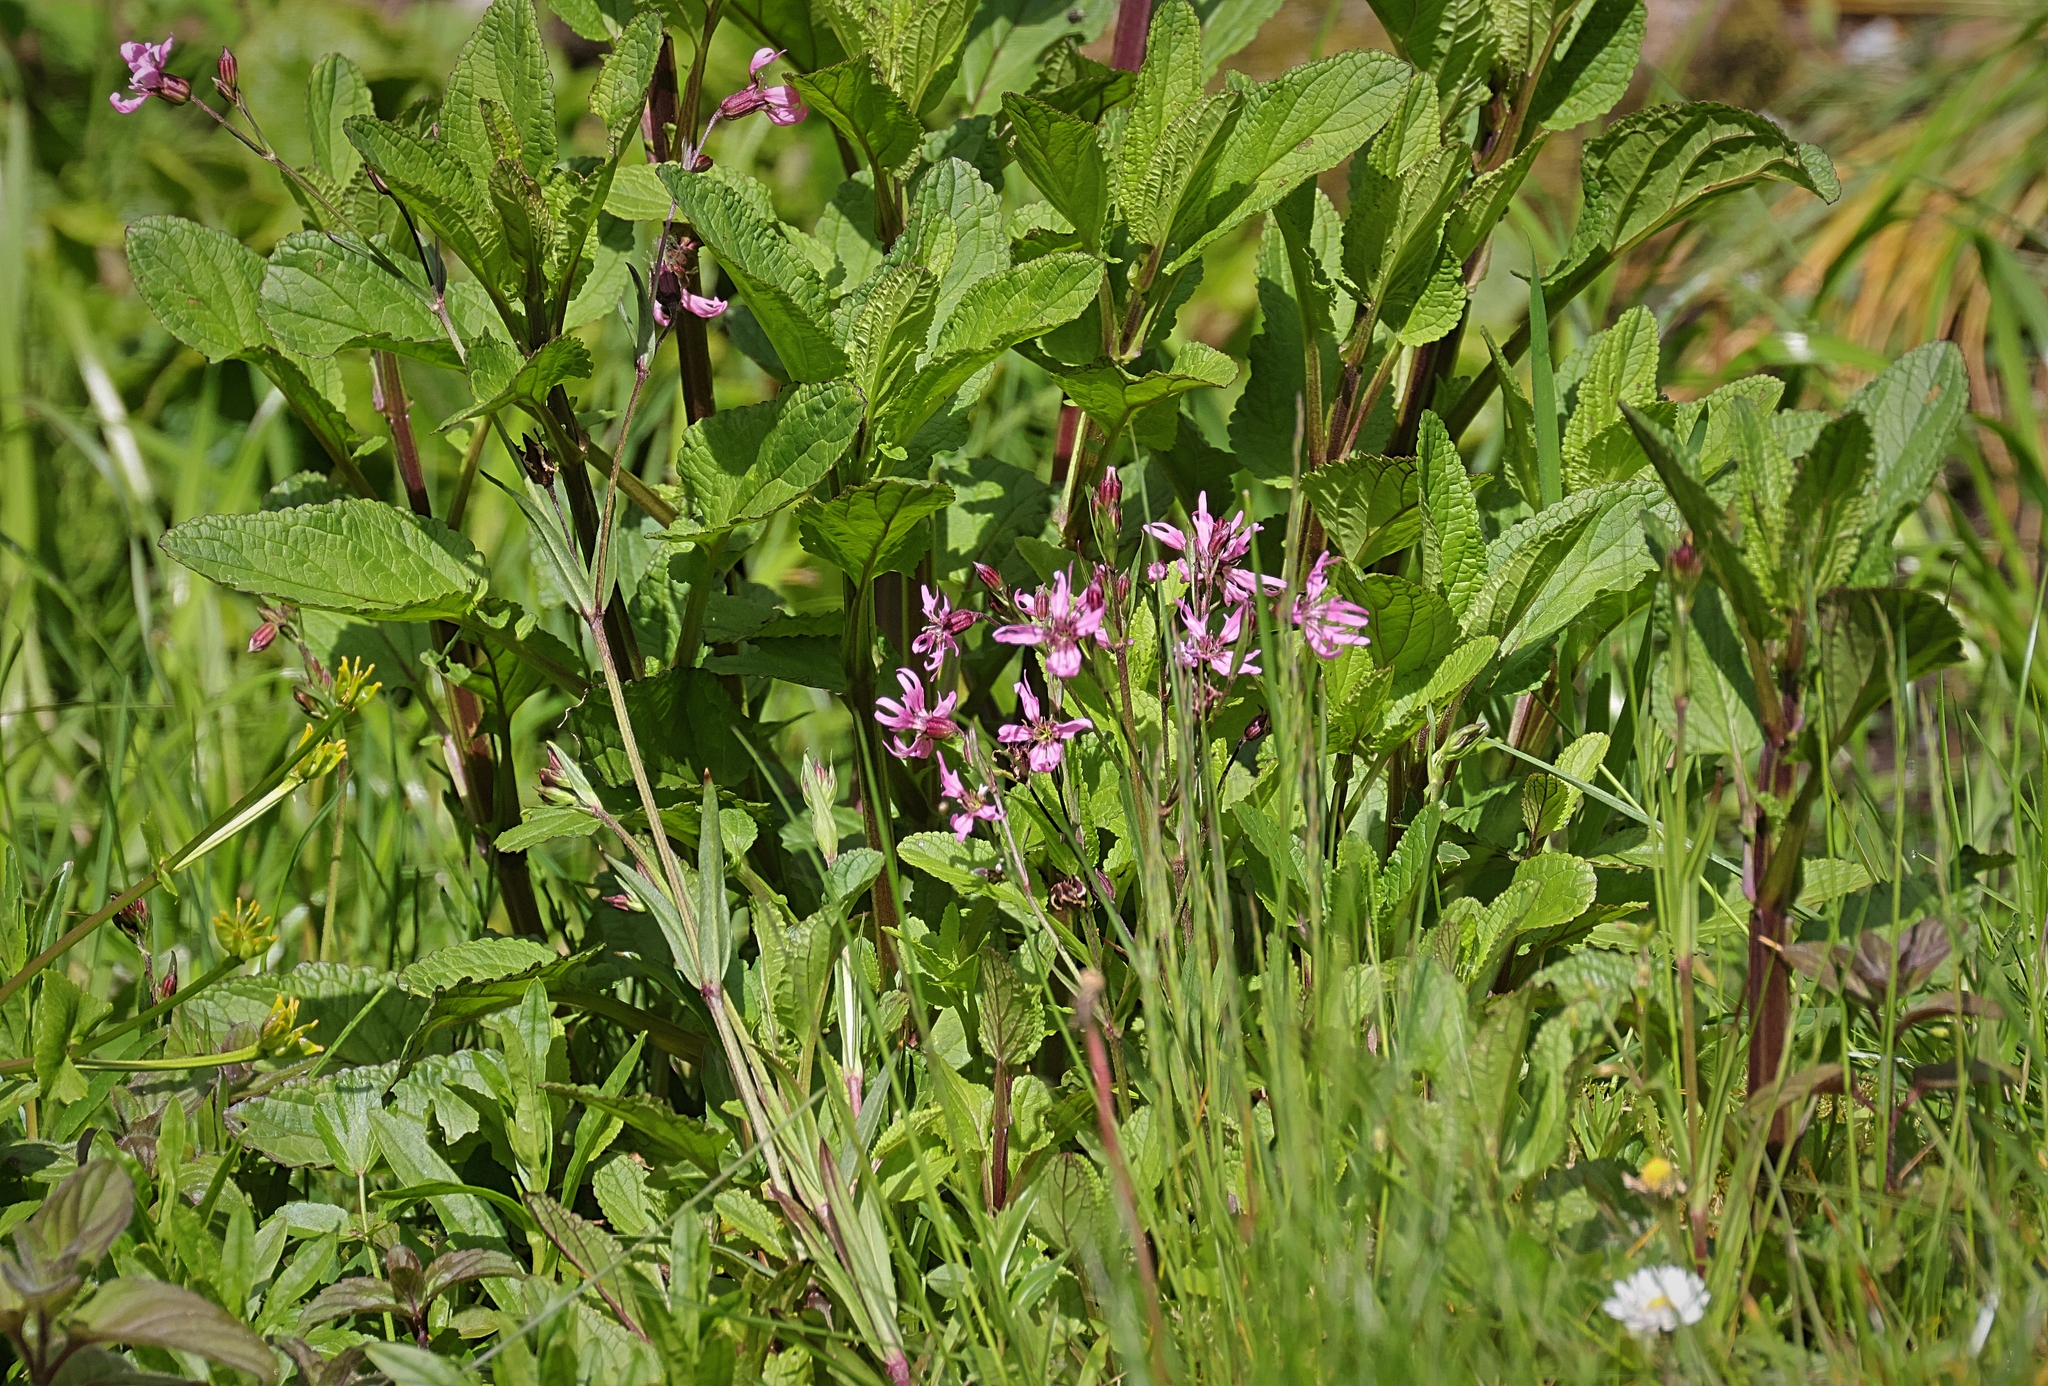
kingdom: Plantae
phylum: Tracheophyta
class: Magnoliopsida
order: Caryophyllales
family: Caryophyllaceae
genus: Silene
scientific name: Silene flos-cuculi
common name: Ragged-robin
